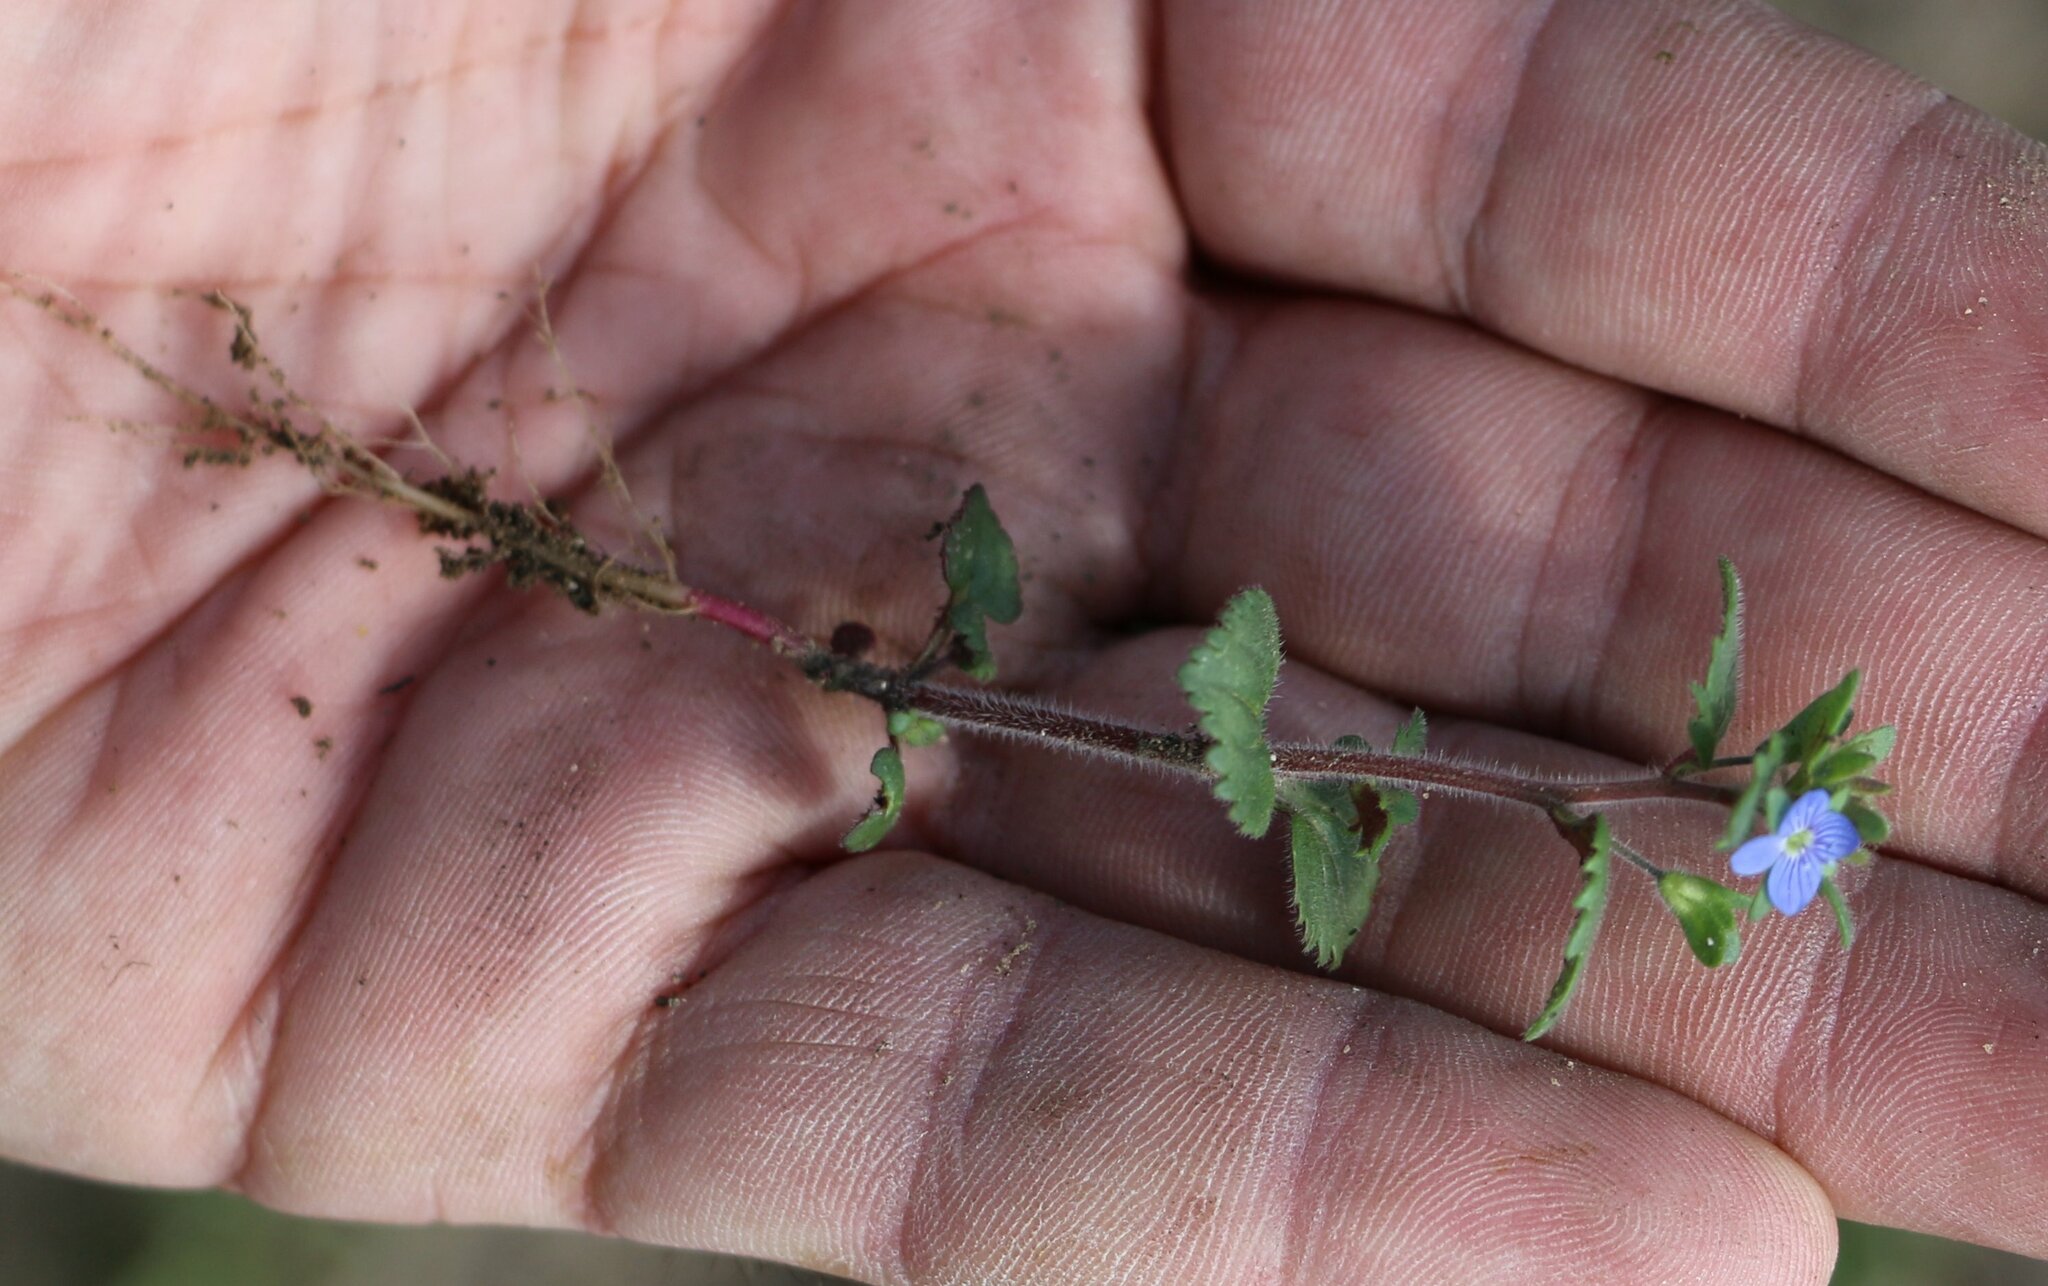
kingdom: Plantae
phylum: Tracheophyta
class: Magnoliopsida
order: Lamiales
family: Plantaginaceae
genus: Veronica
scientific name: Veronica praecox
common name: Breckland speedwell
